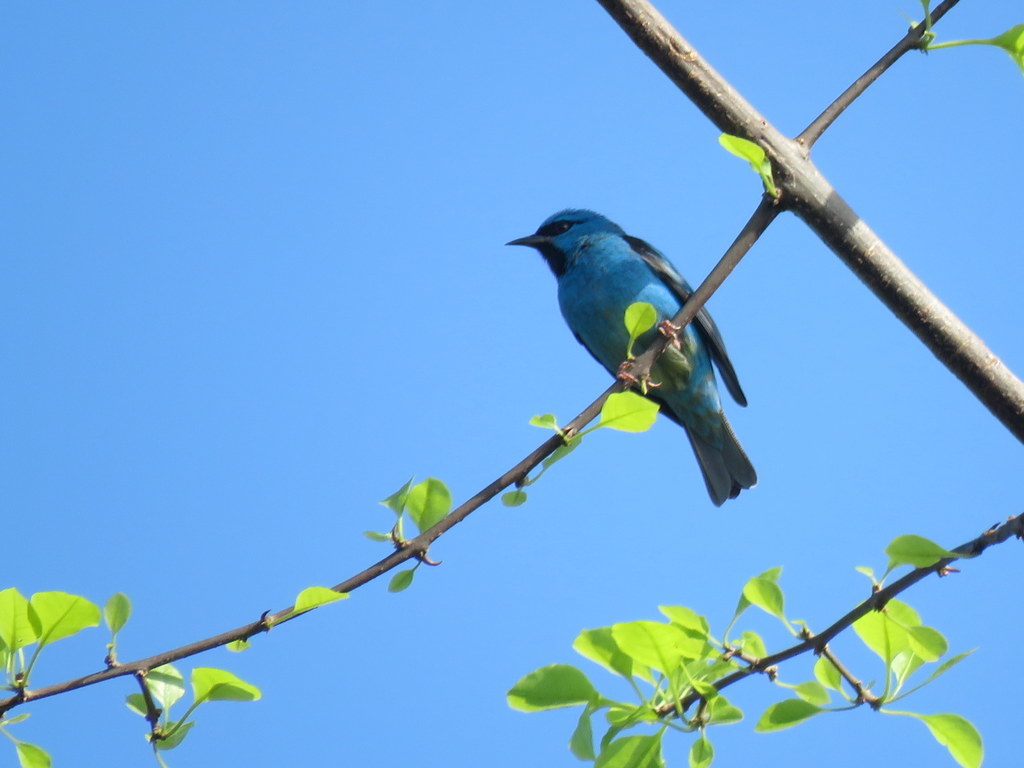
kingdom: Animalia
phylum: Chordata
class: Aves
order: Passeriformes
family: Thraupidae
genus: Dacnis
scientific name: Dacnis cayana
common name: Blue dacnis
